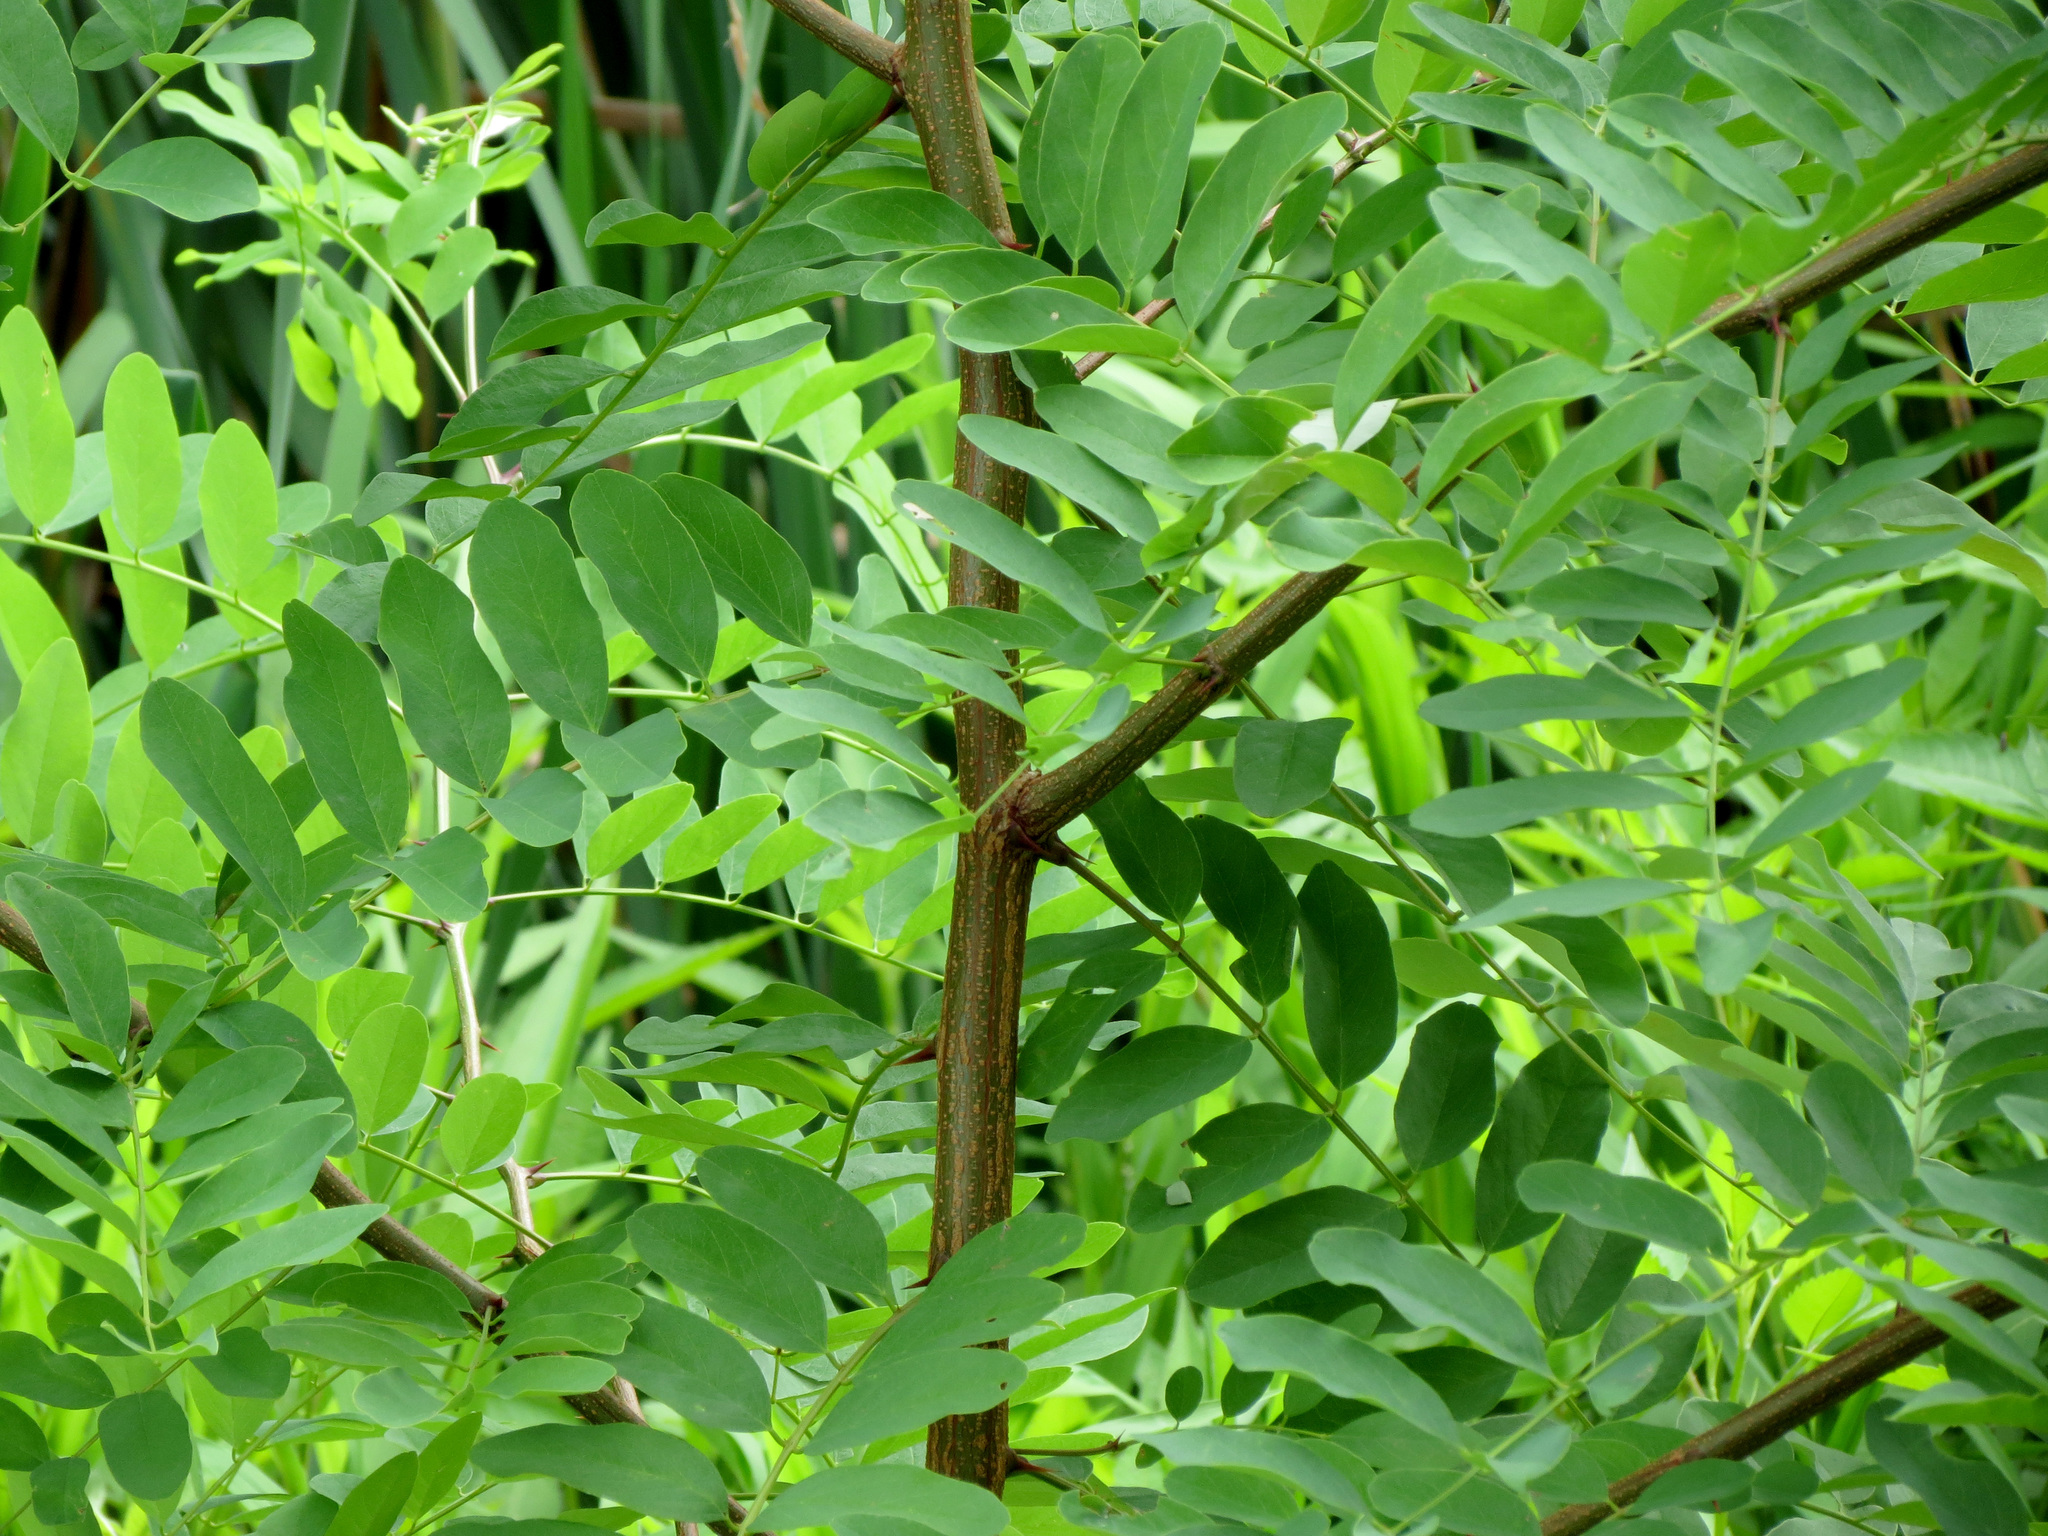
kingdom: Plantae
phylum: Tracheophyta
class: Magnoliopsida
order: Fabales
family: Fabaceae
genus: Robinia
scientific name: Robinia pseudoacacia
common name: Black locust
